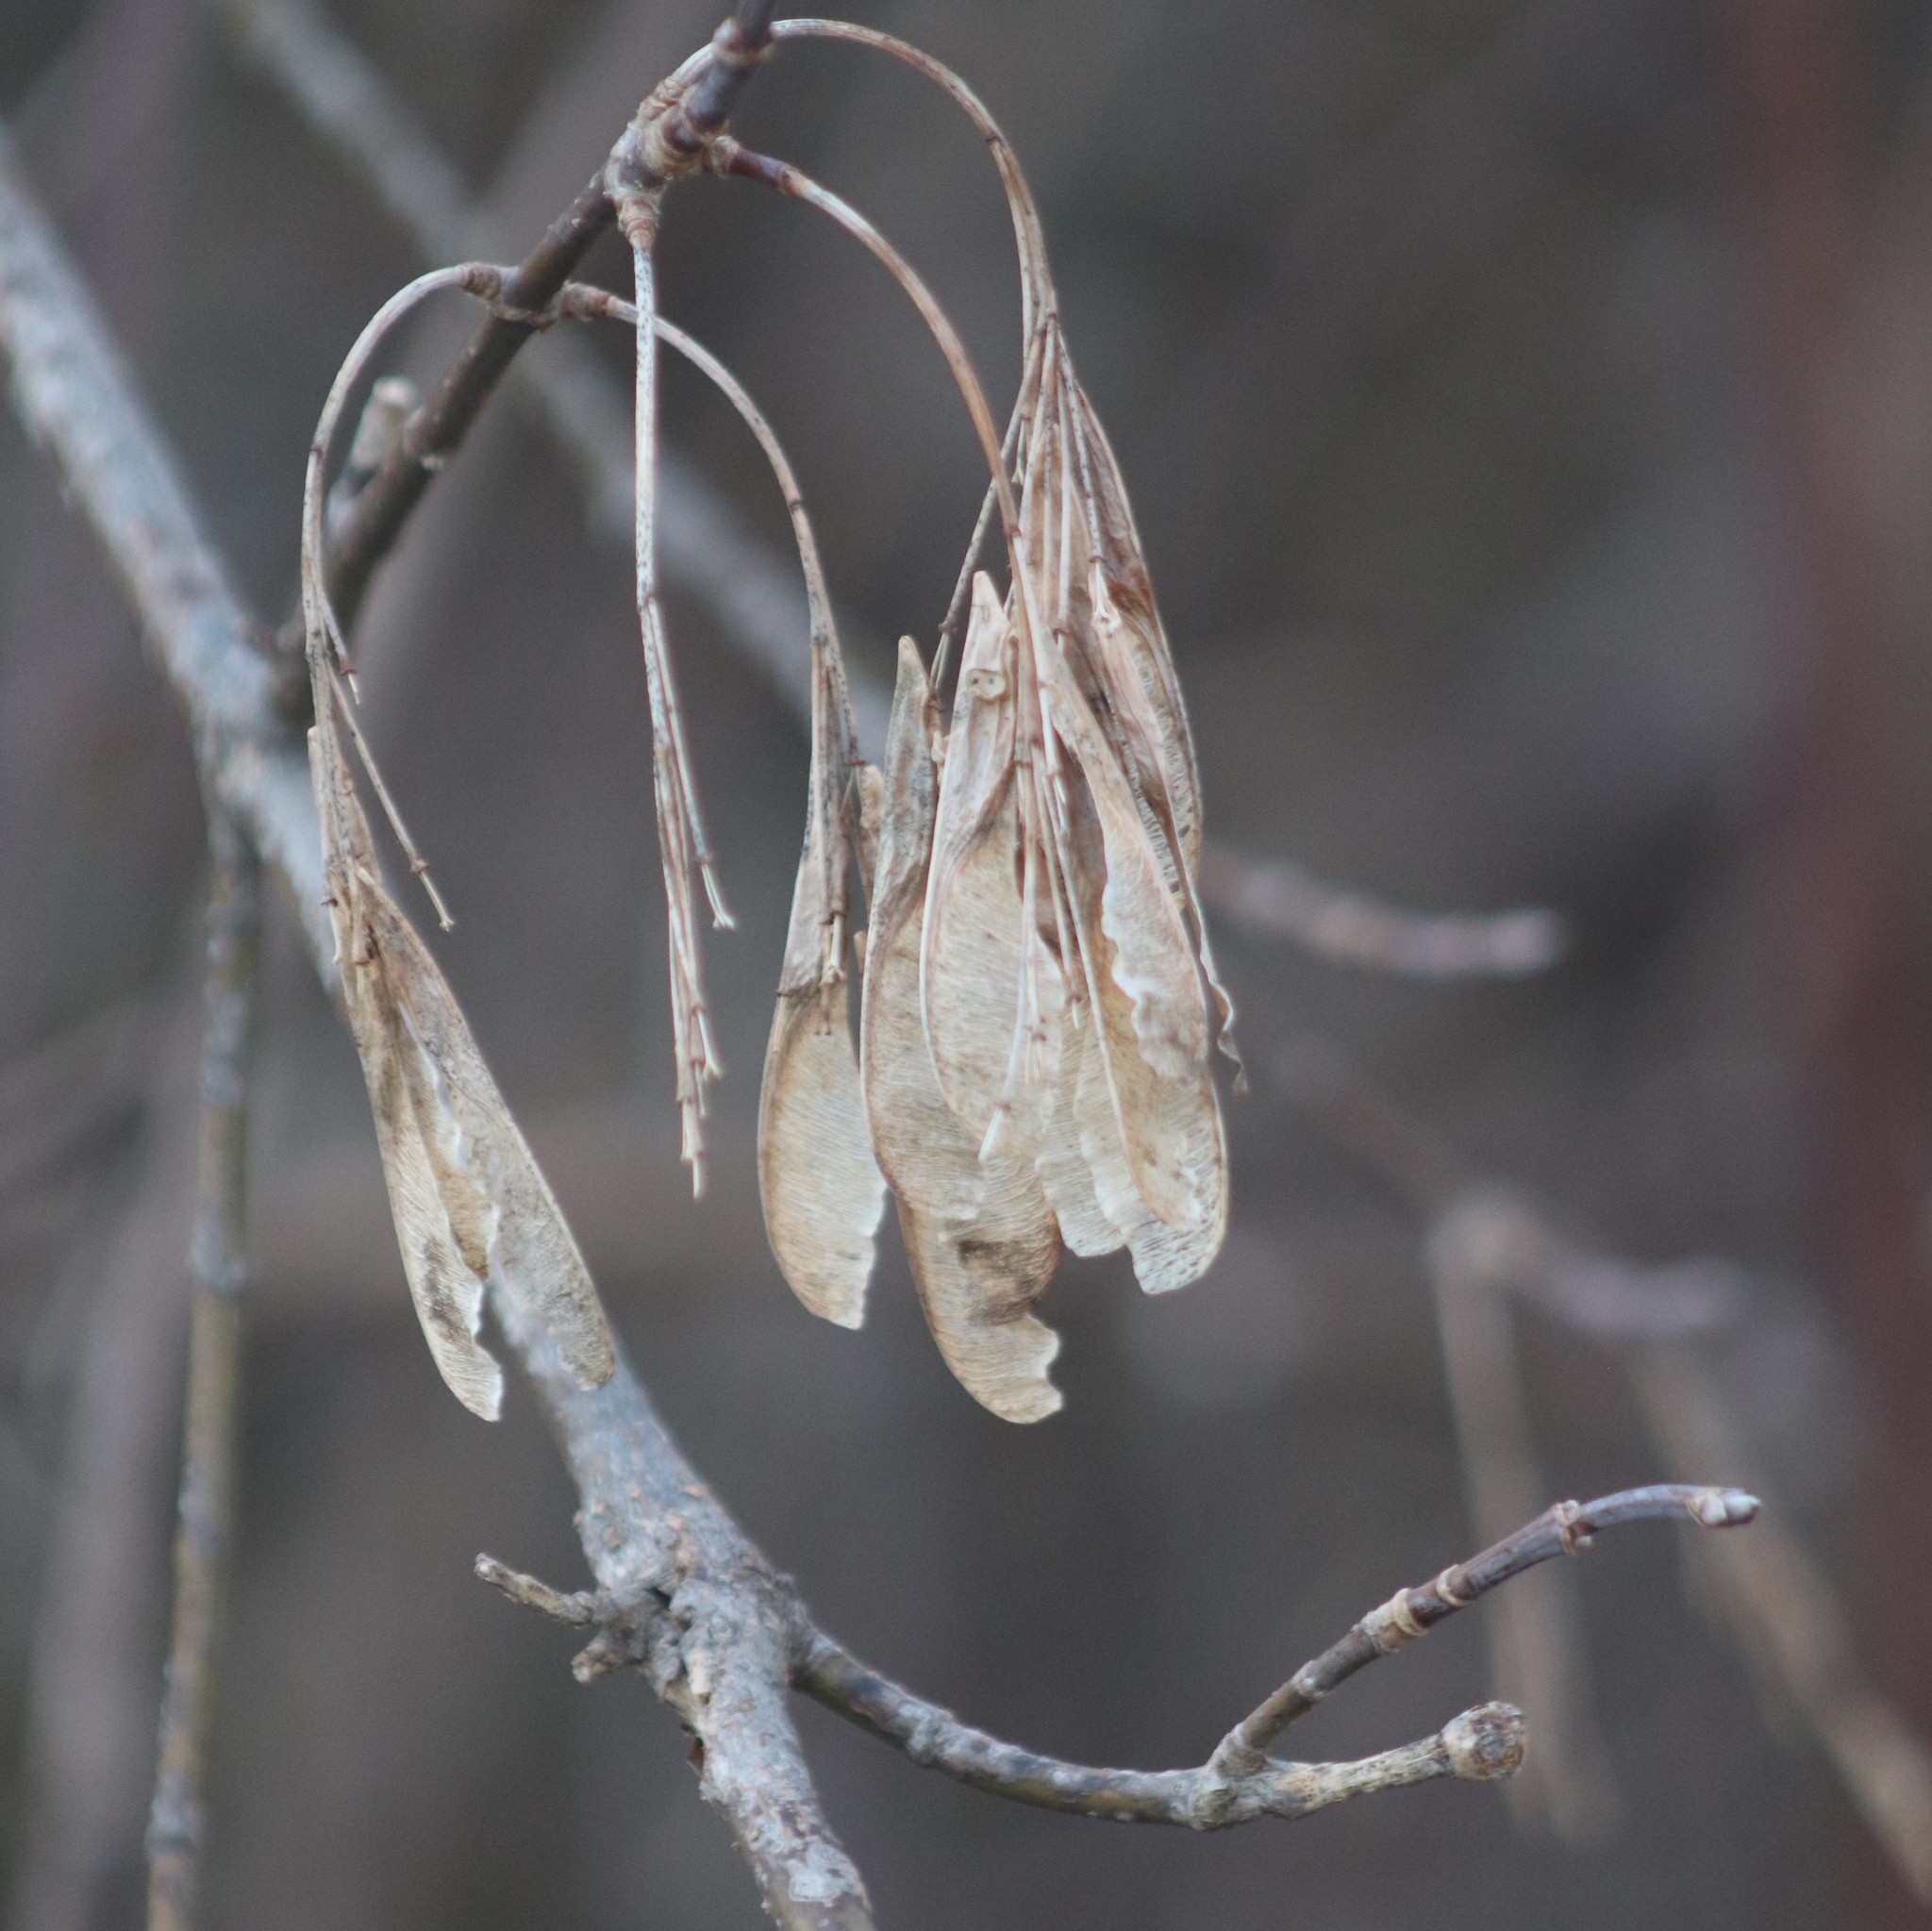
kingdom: Plantae
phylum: Tracheophyta
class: Magnoliopsida
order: Sapindales
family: Sapindaceae
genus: Acer
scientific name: Acer negundo
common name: Ashleaf maple
